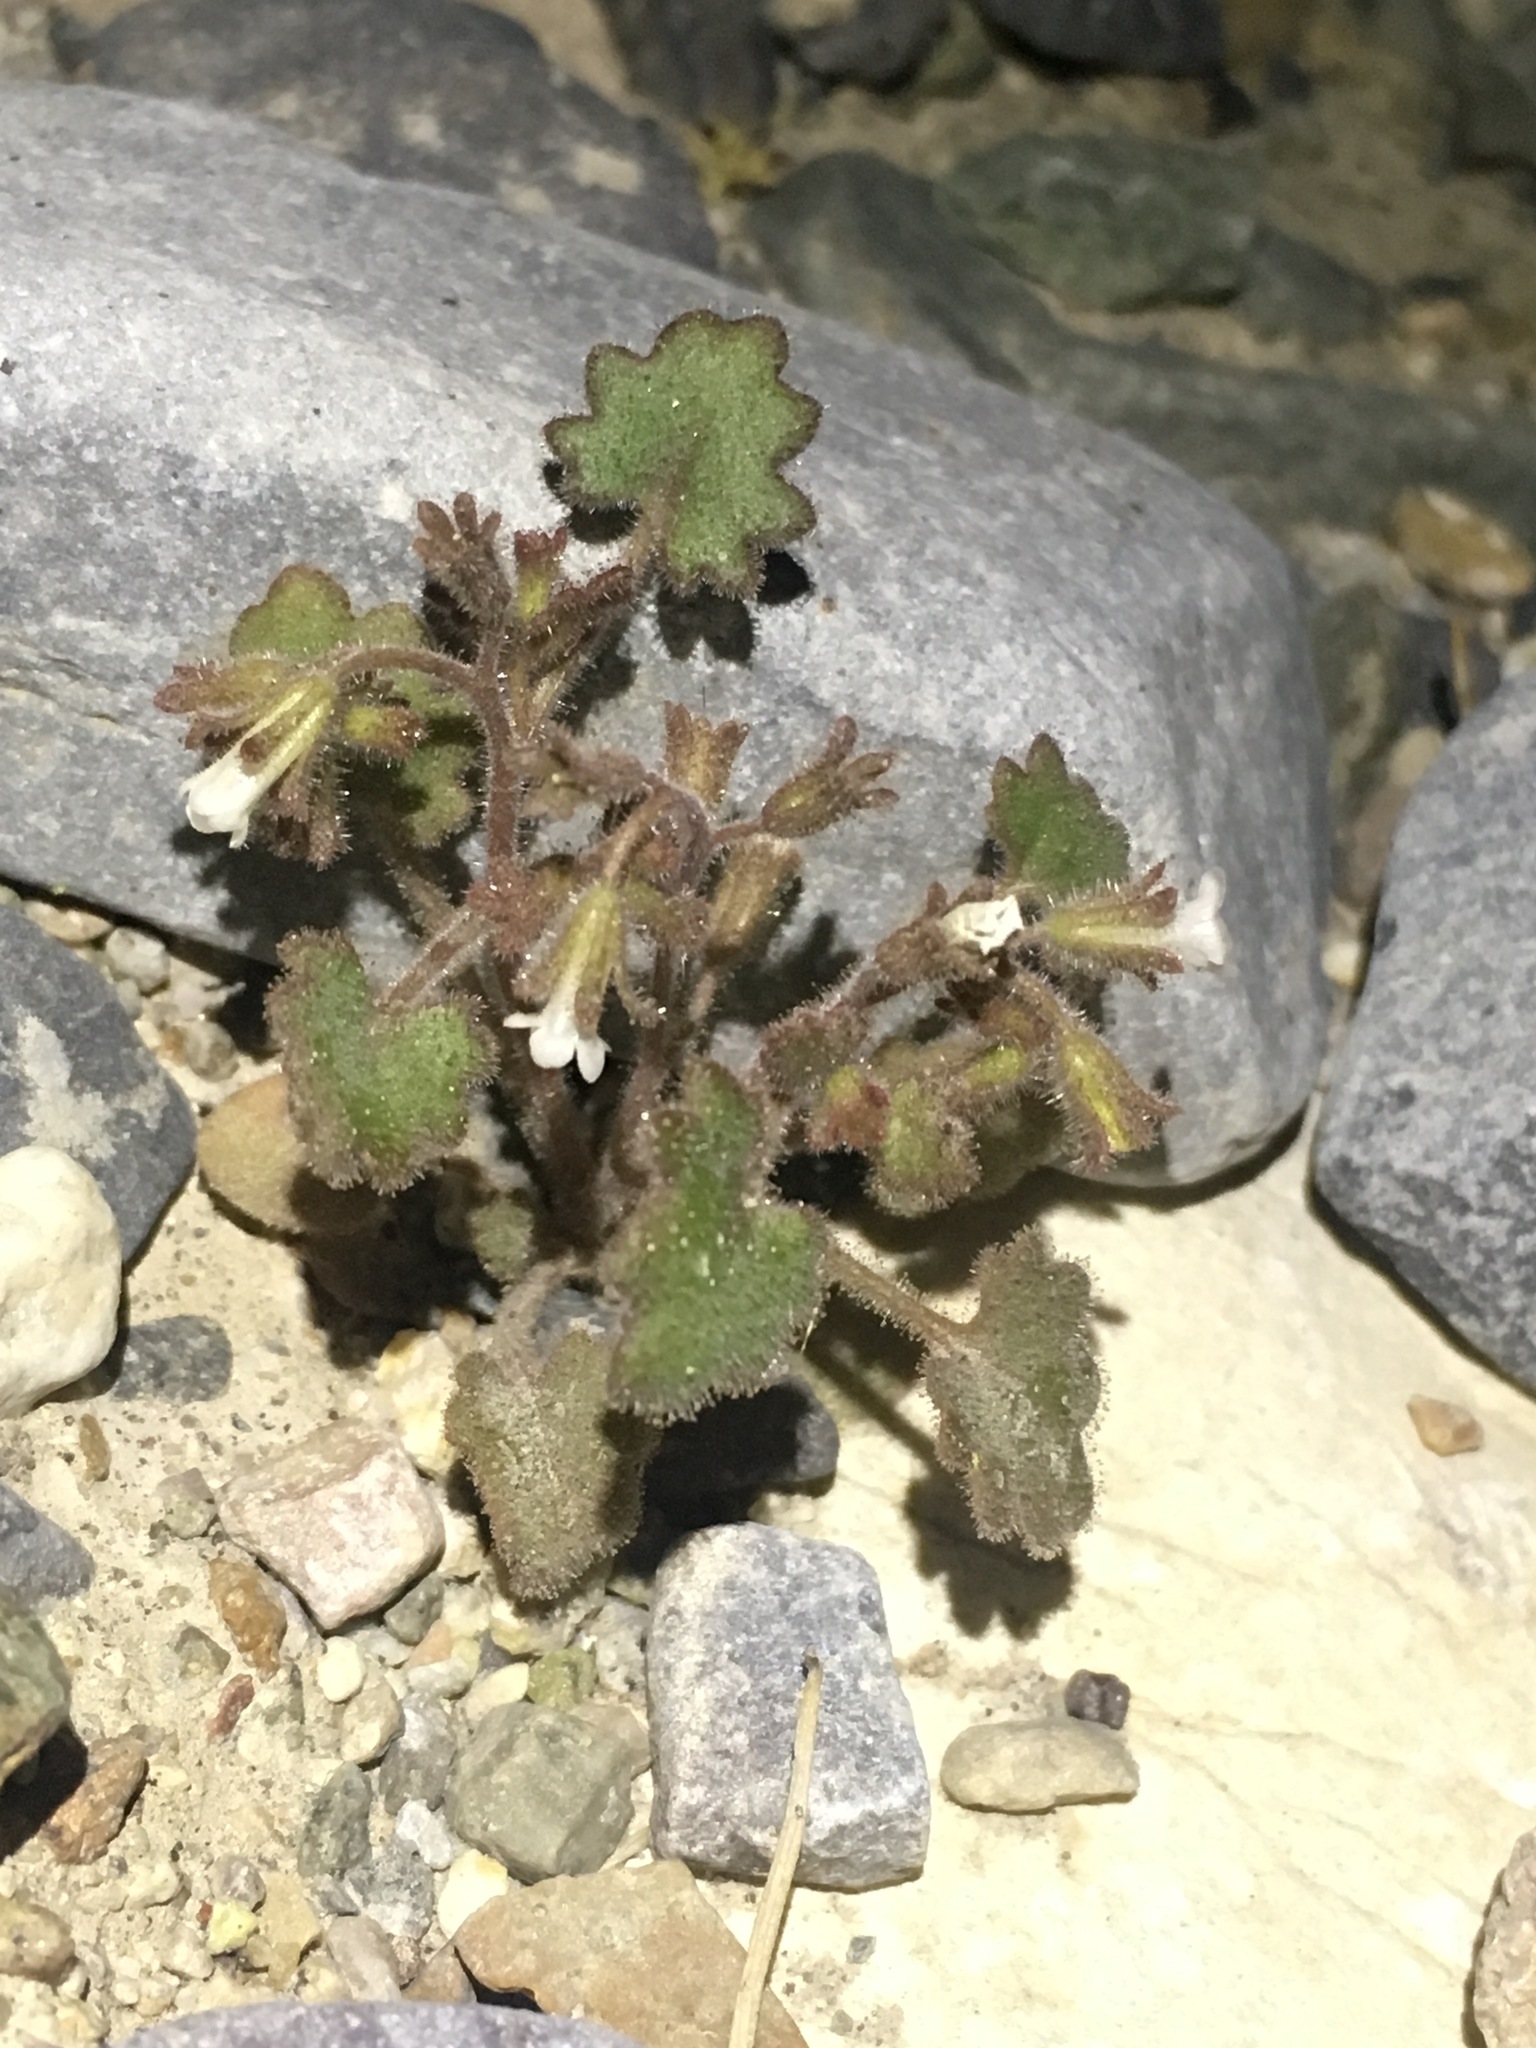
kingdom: Plantae
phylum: Tracheophyta
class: Magnoliopsida
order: Boraginales
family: Hydrophyllaceae
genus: Phacelia
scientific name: Phacelia rotundifolia
